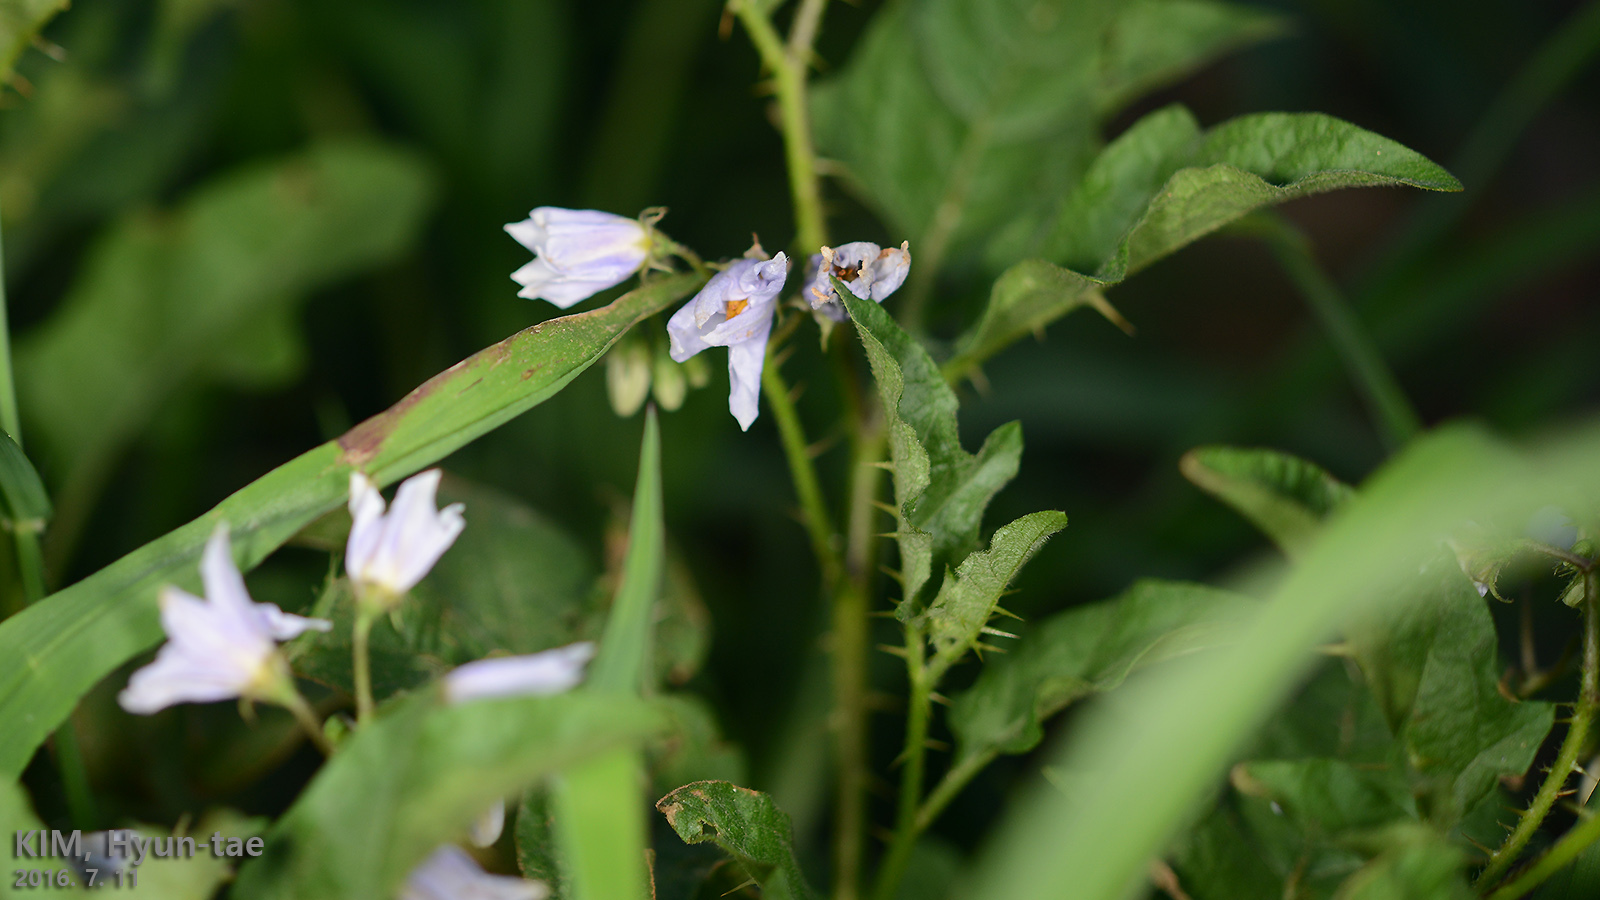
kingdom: Plantae
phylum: Tracheophyta
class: Magnoliopsida
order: Solanales
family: Solanaceae
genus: Solanum
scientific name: Solanum carolinense
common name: Horse-nettle
